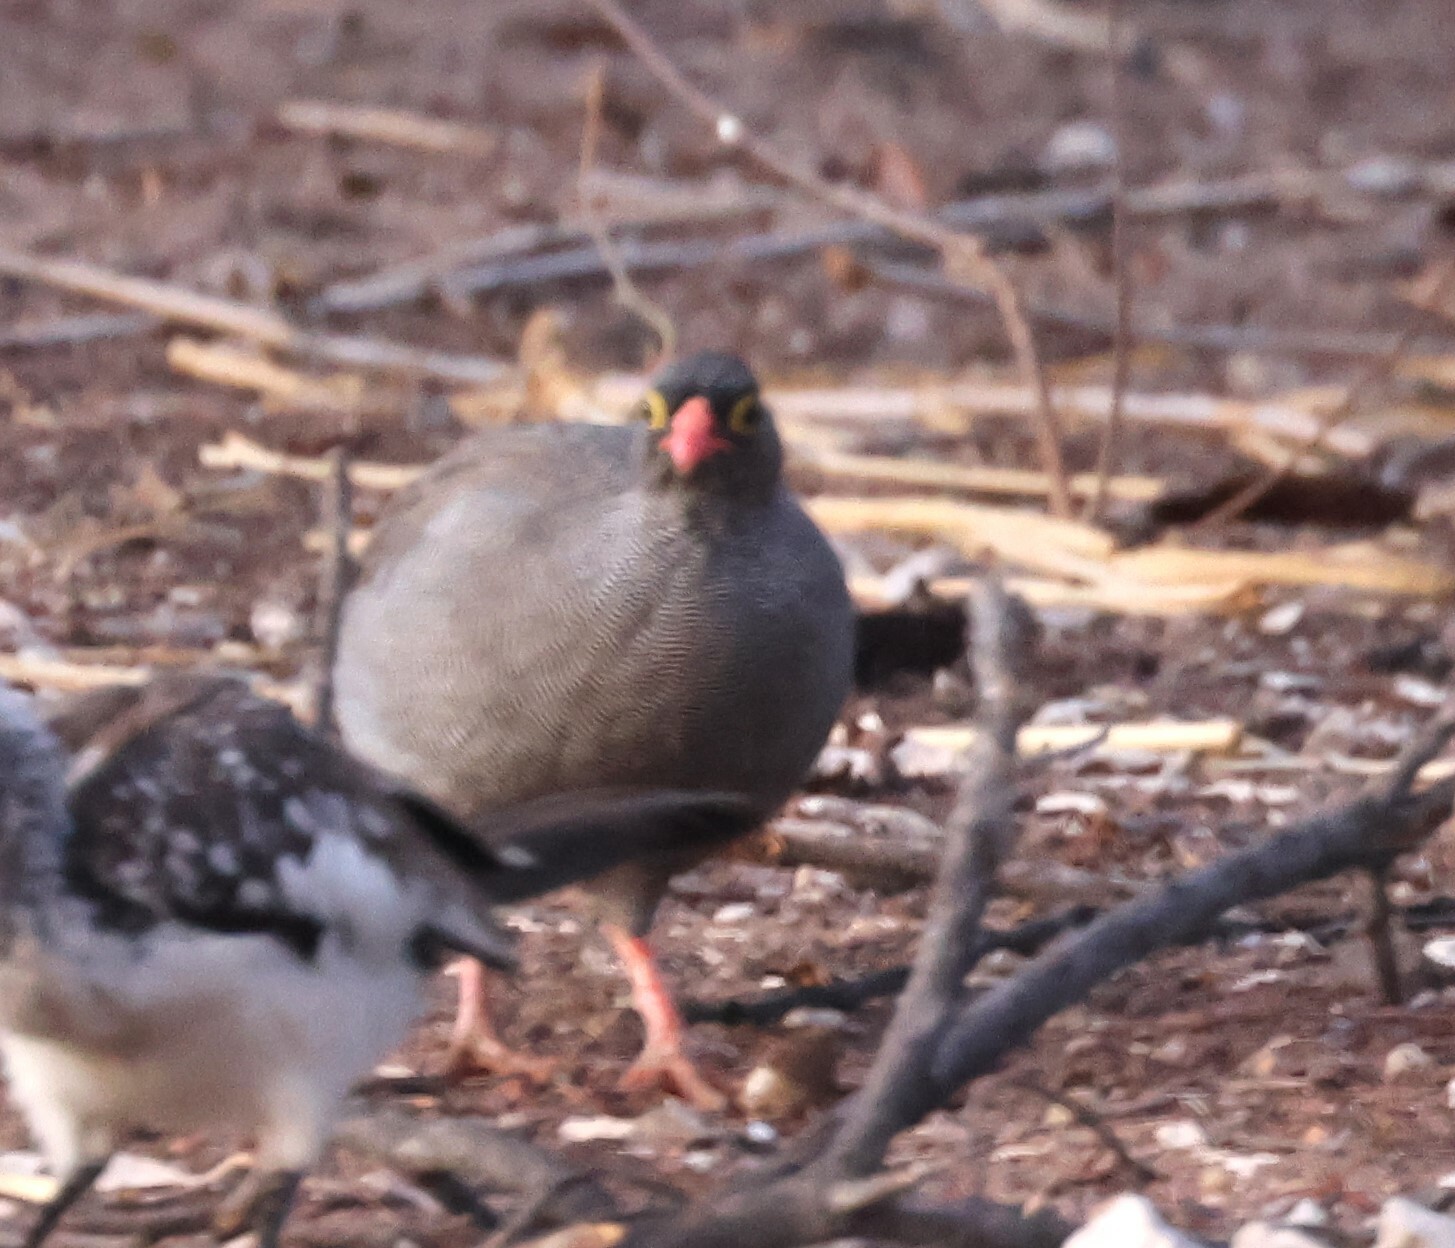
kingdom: Animalia
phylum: Chordata
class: Aves
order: Galliformes
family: Phasianidae
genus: Pternistis
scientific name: Pternistis adspersus
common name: Red-billed spurfowl
